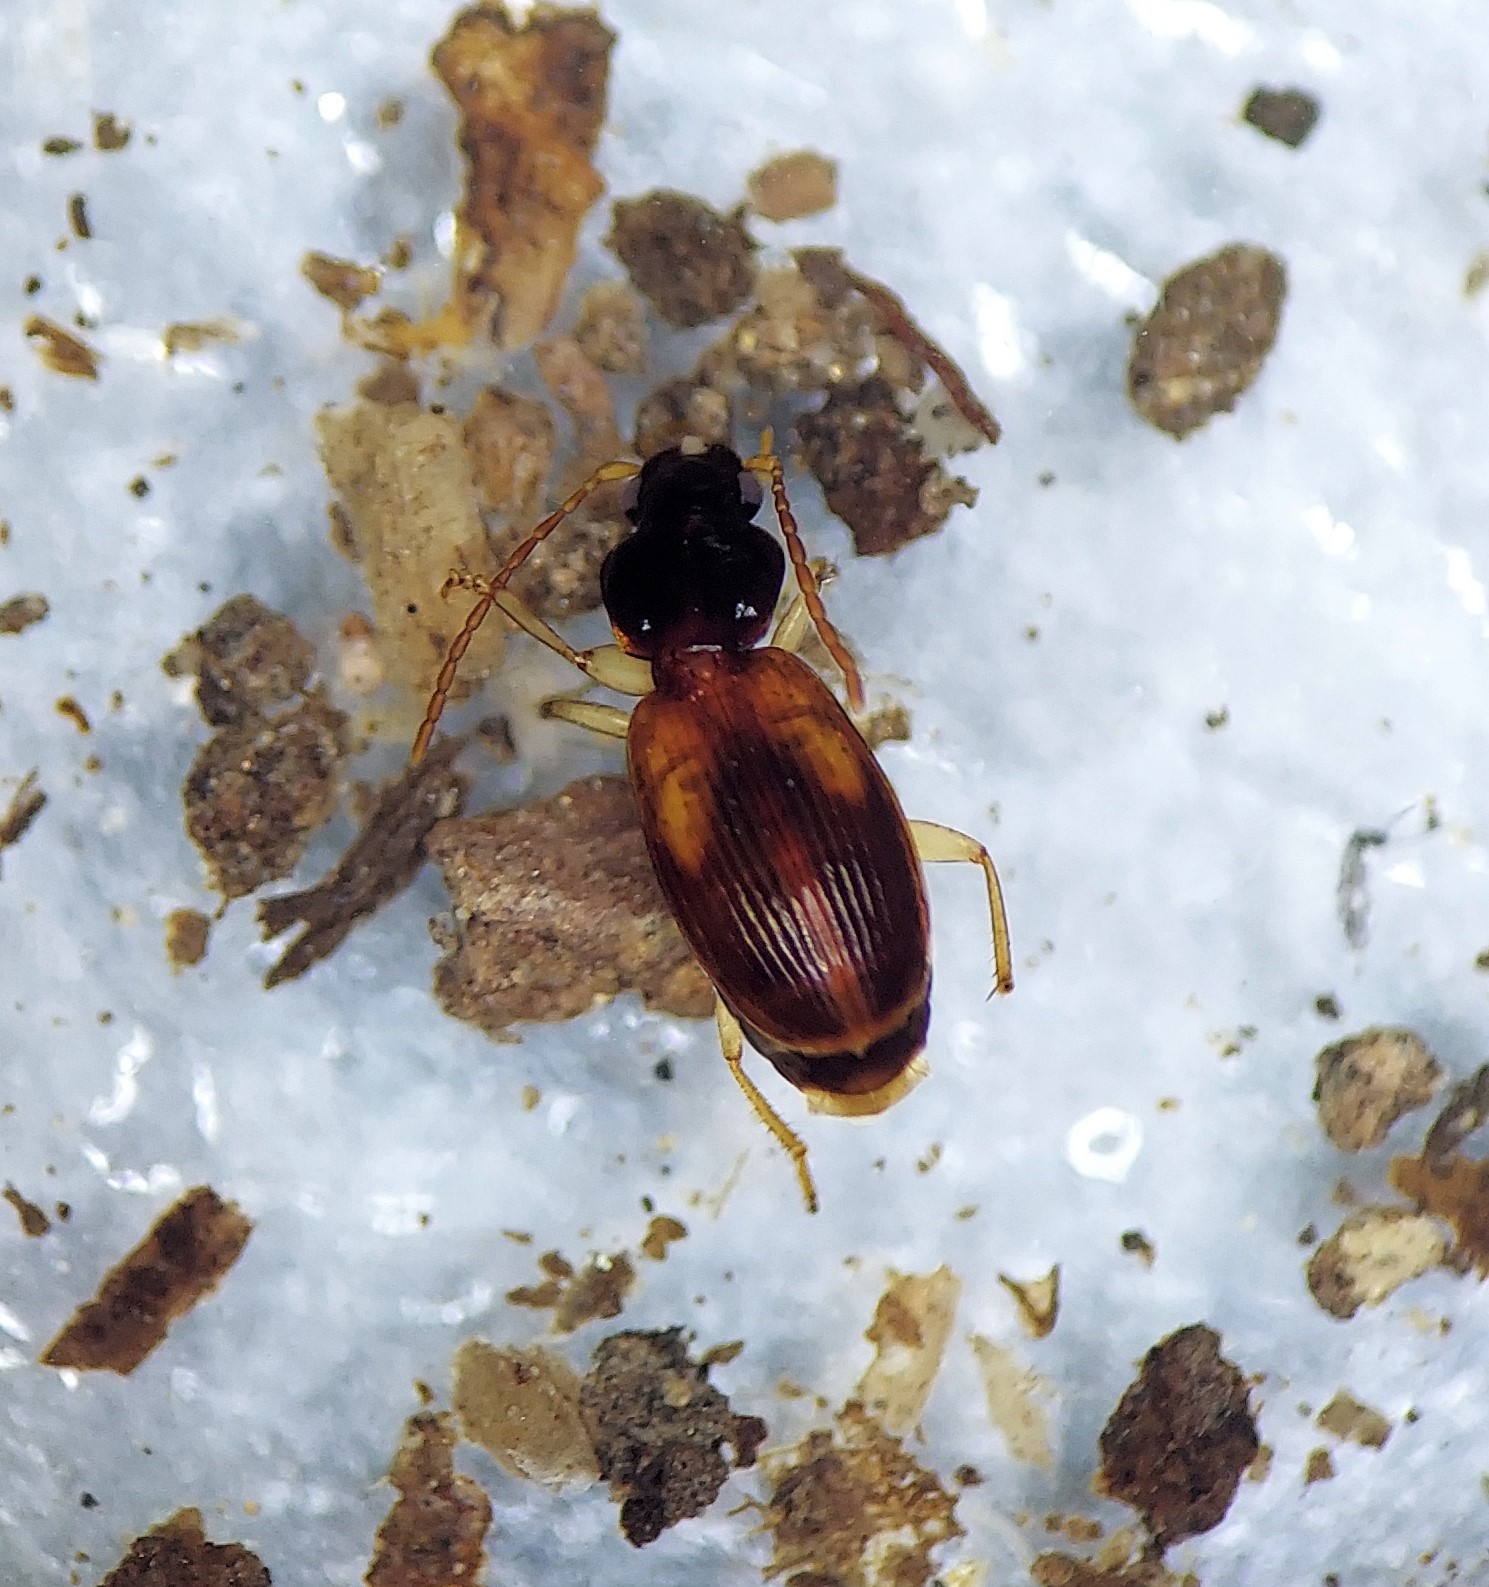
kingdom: Animalia
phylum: Arthropoda
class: Insecta
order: Coleoptera
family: Carabidae
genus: Badister
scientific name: Badister notatus
